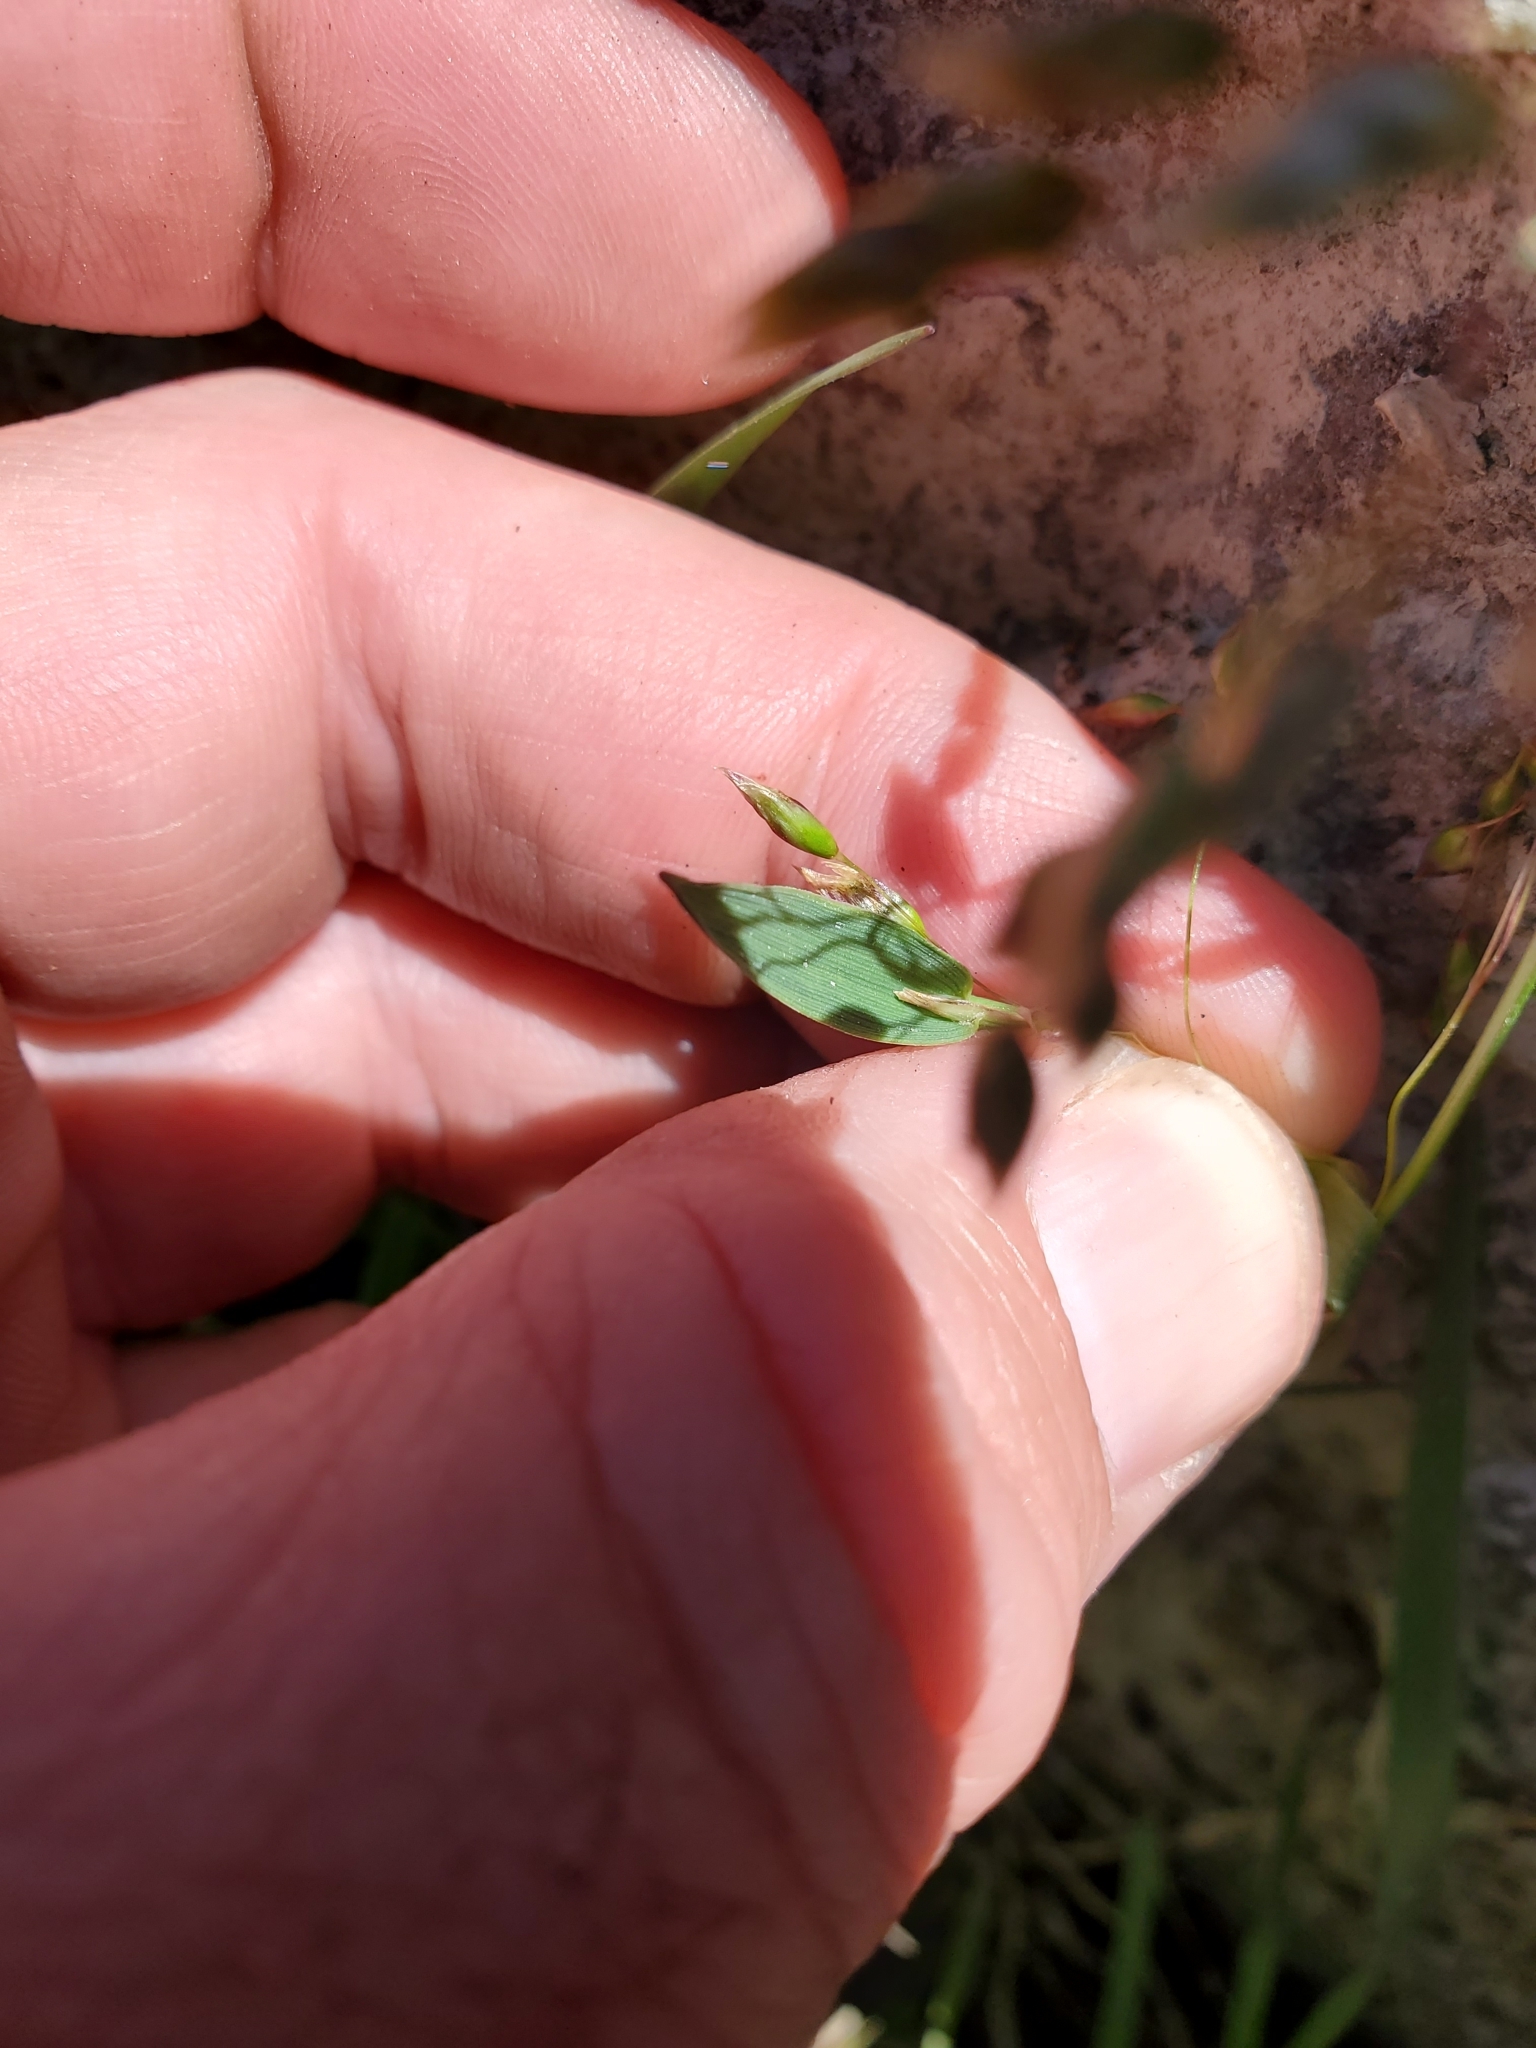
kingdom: Plantae
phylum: Tracheophyta
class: Liliopsida
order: Poales
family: Poaceae
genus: Anthoxanthum
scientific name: Anthoxanthum nitens
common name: Holy grass
